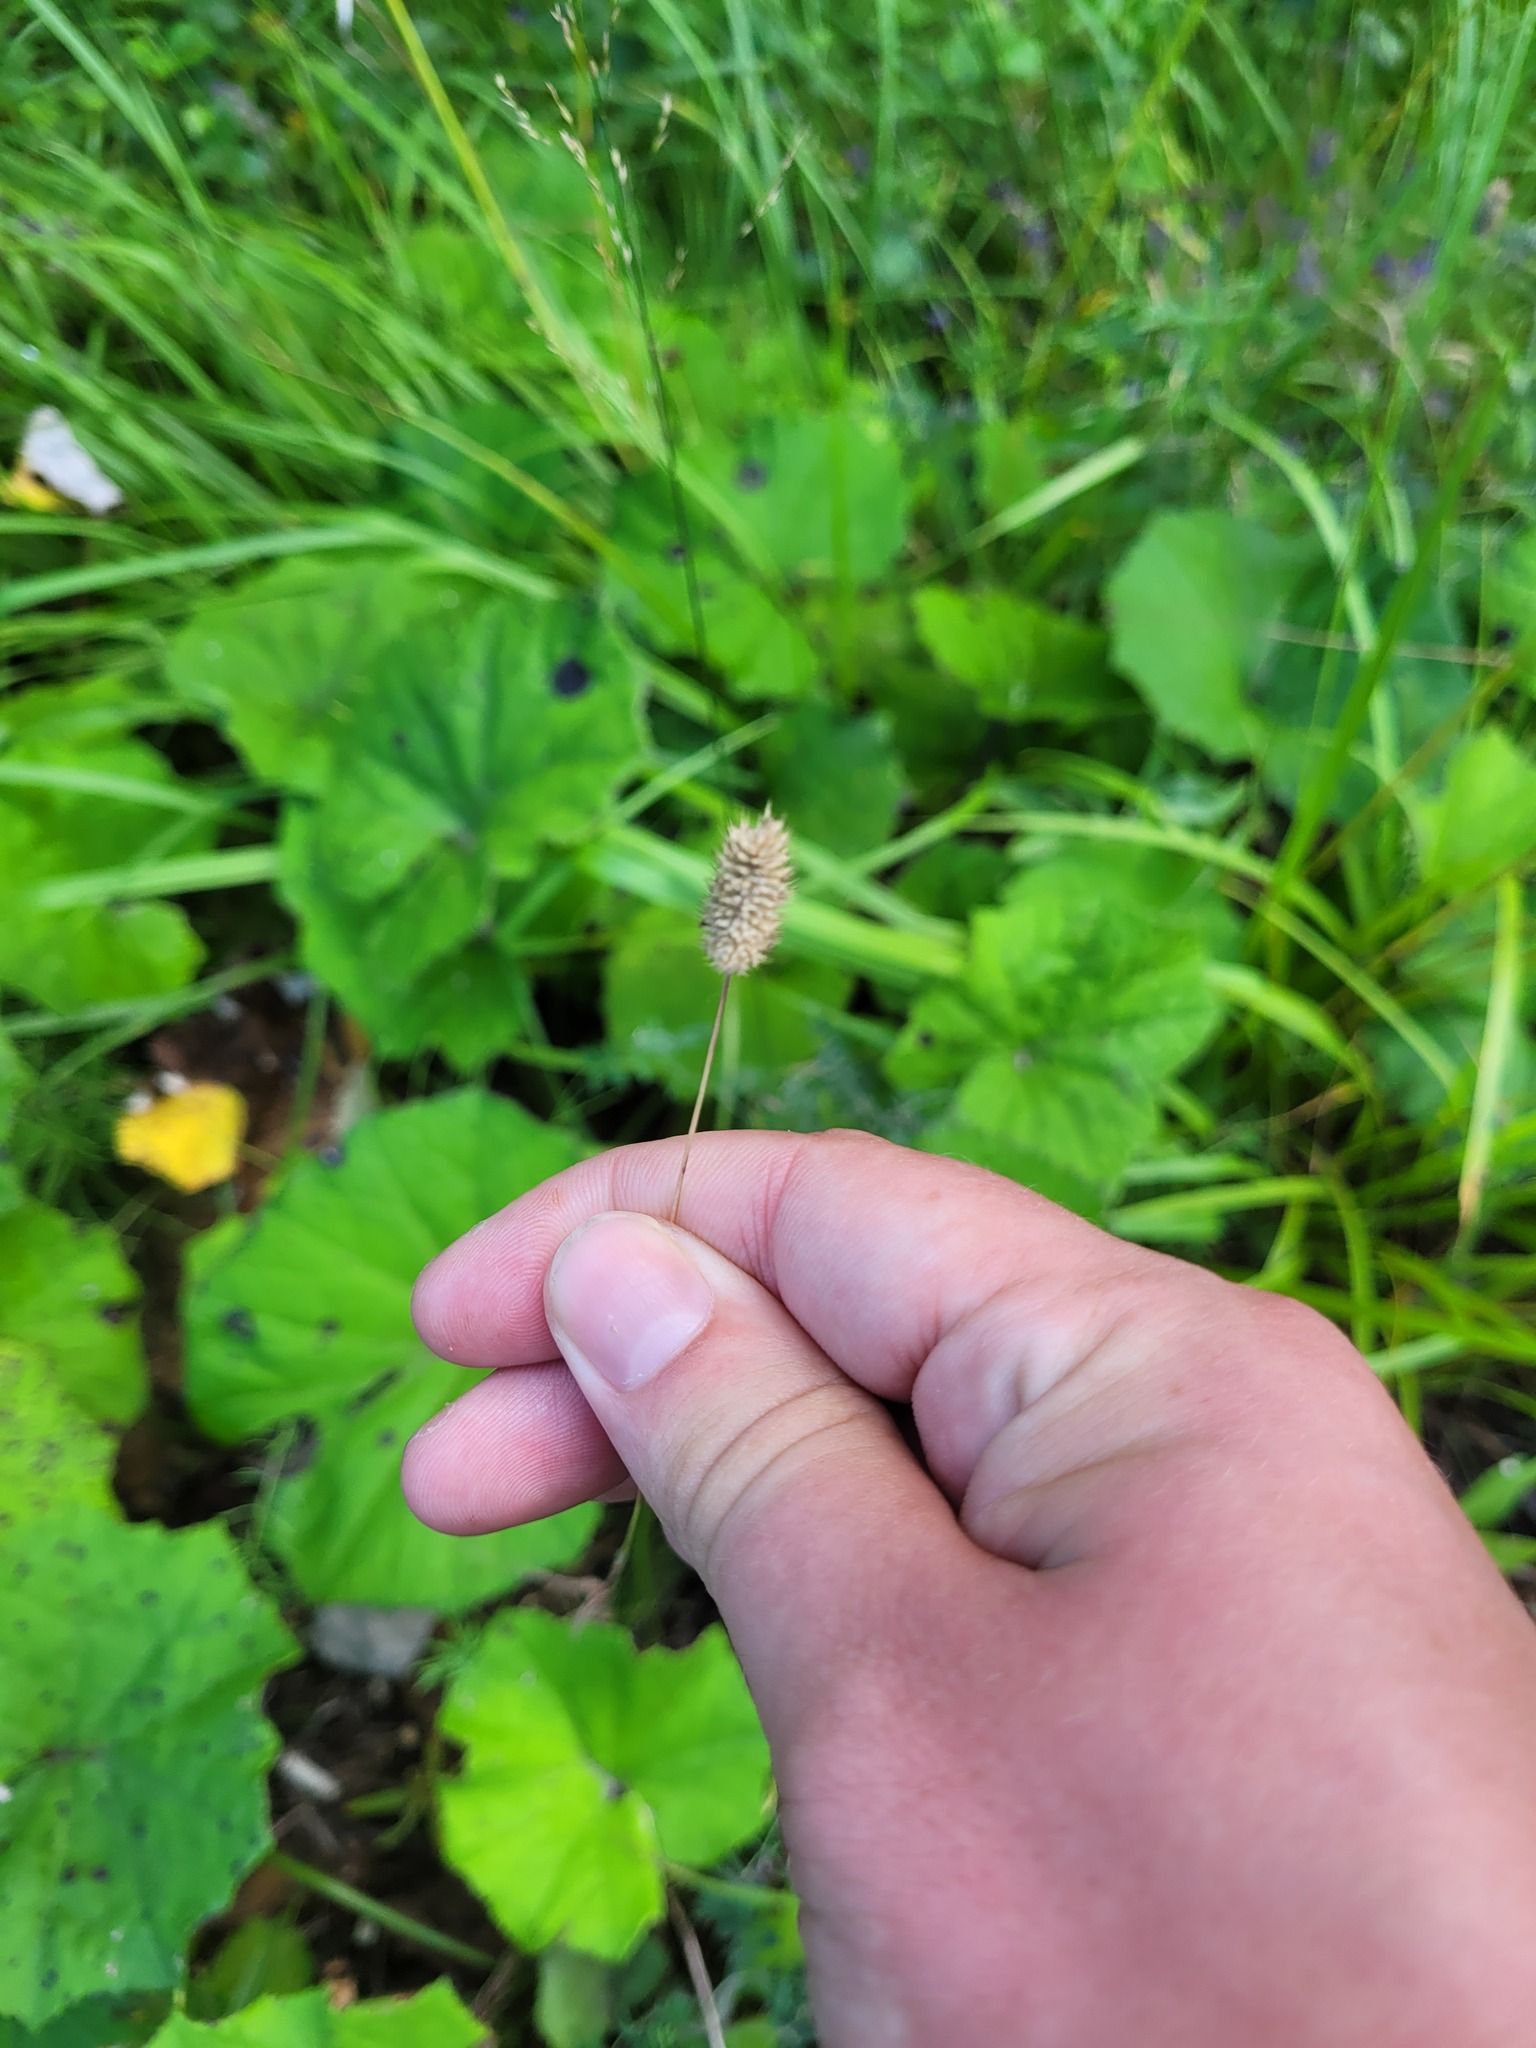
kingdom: Plantae
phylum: Tracheophyta
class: Liliopsida
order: Poales
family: Poaceae
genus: Phleum
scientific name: Phleum pratense
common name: Timothy grass
